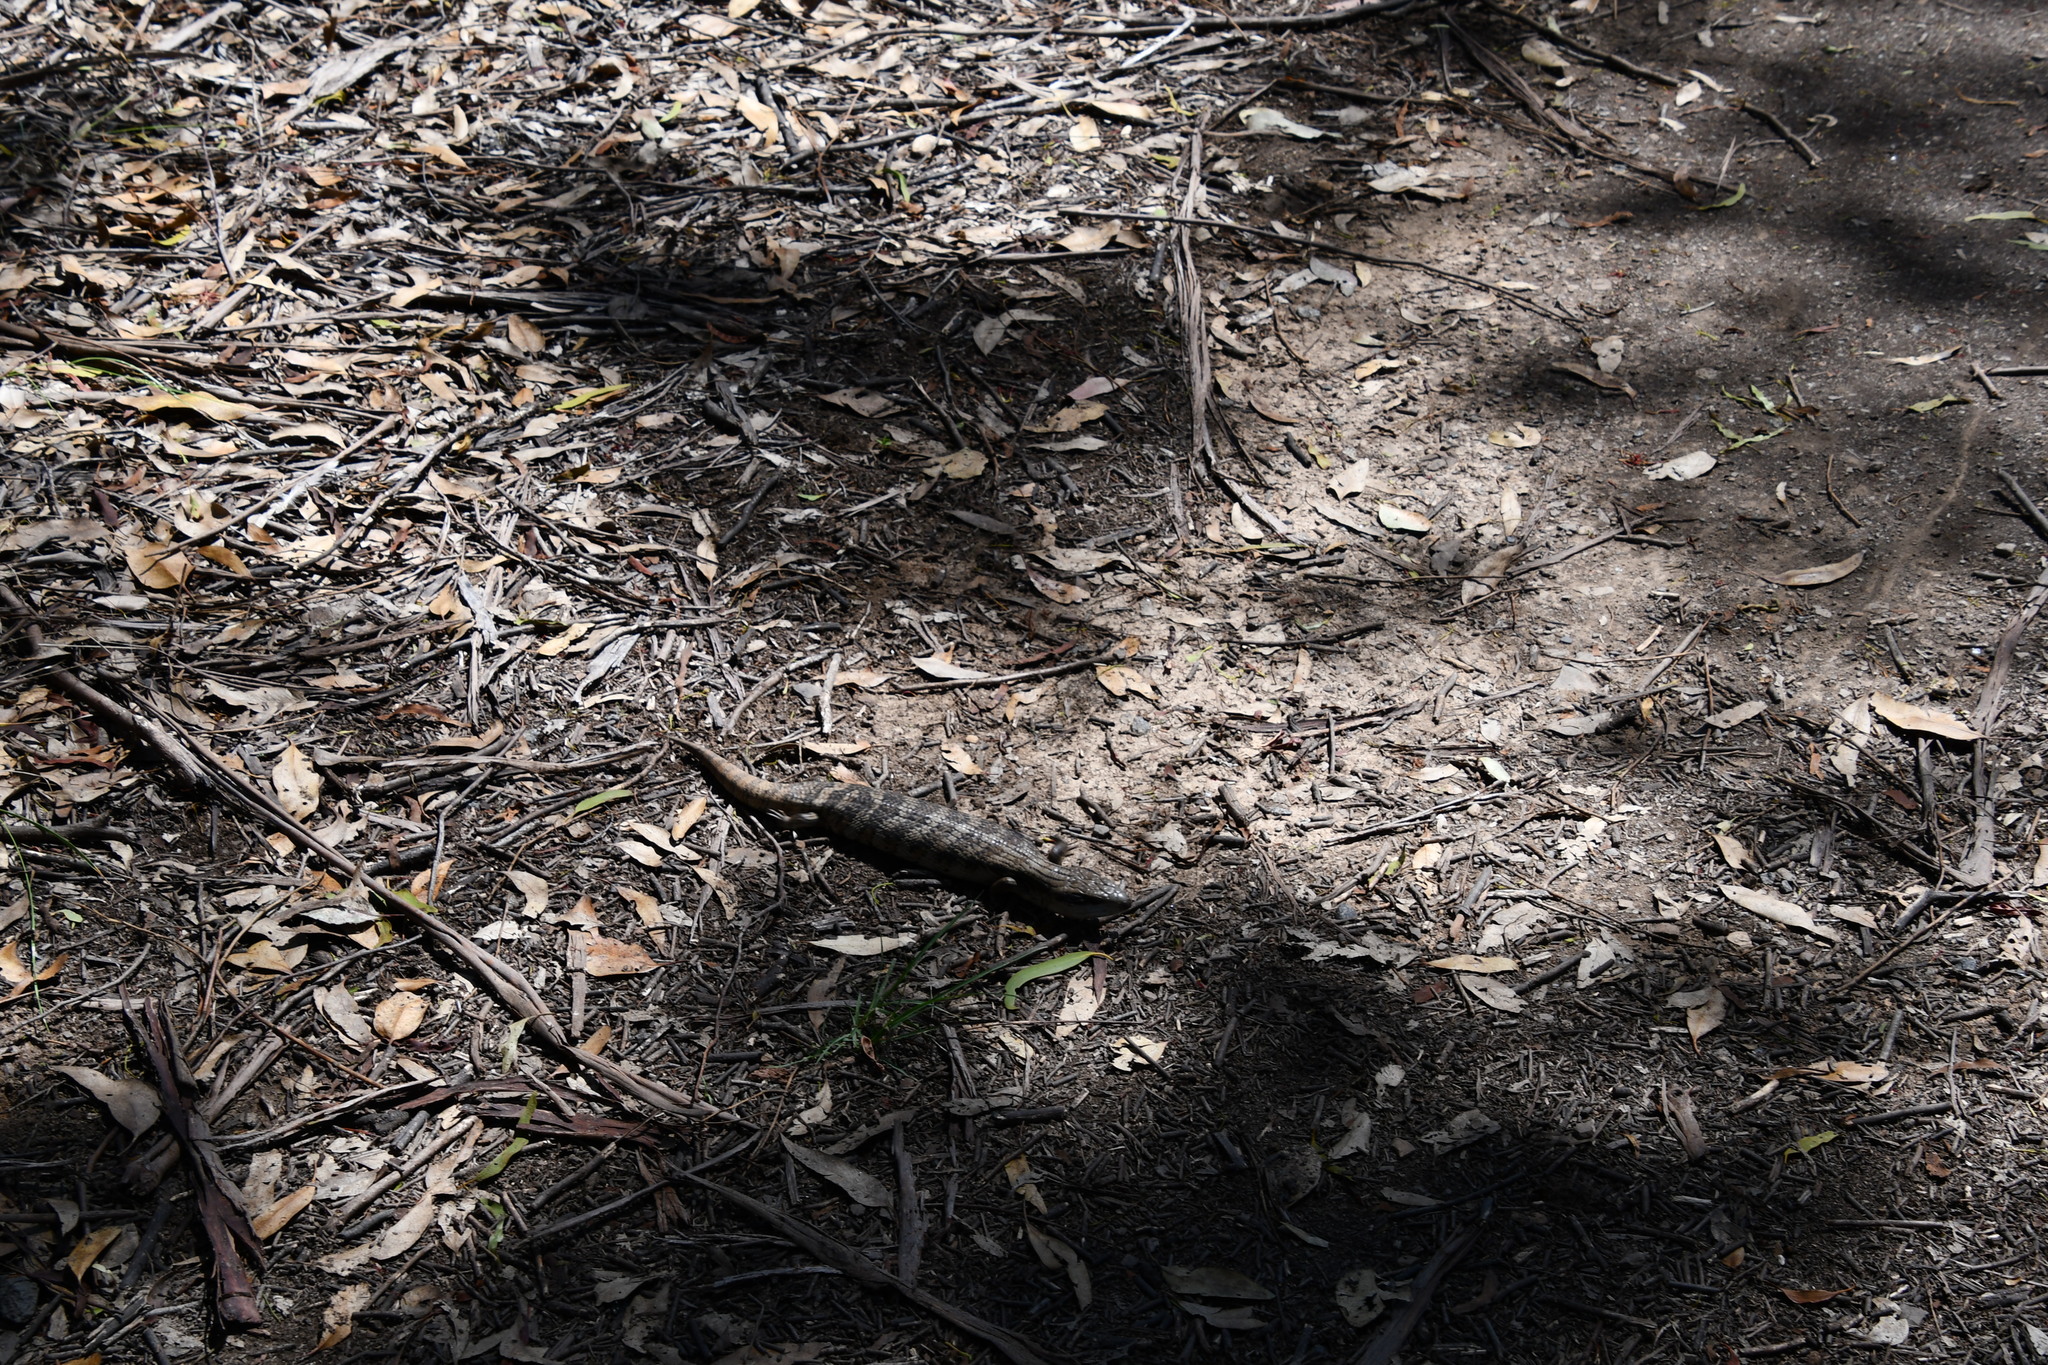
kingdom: Animalia
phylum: Chordata
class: Squamata
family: Scincidae
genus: Tiliqua
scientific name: Tiliqua scincoides
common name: Common bluetongue
